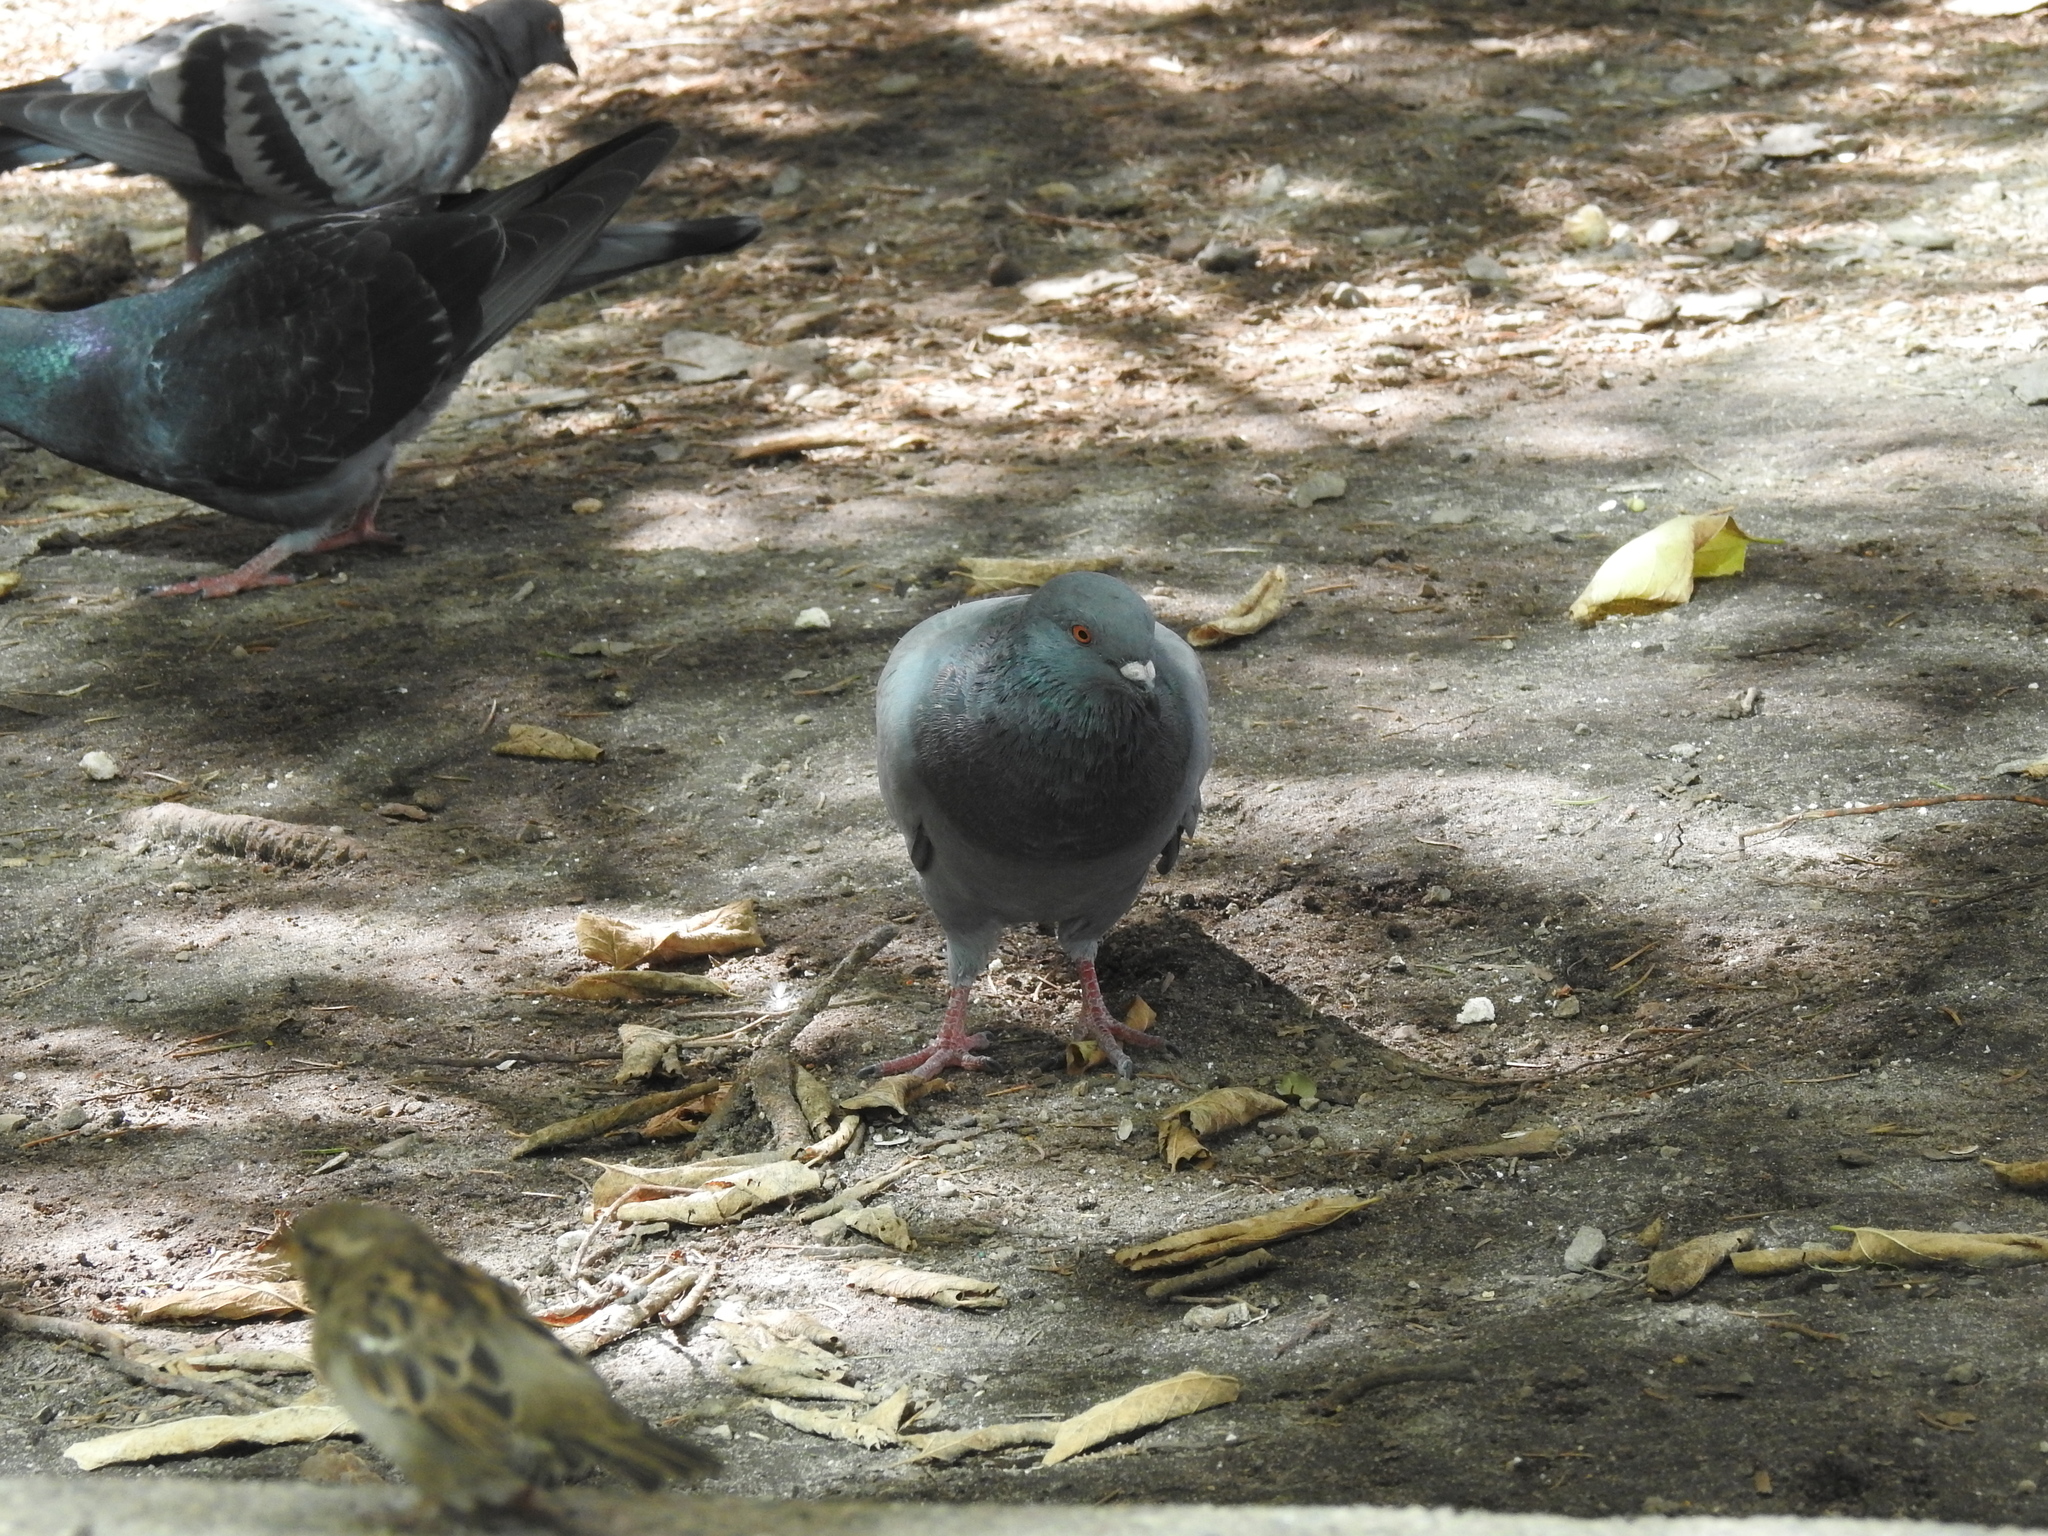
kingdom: Animalia
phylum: Chordata
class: Aves
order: Columbiformes
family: Columbidae
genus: Columba
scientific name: Columba livia
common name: Rock pigeon
